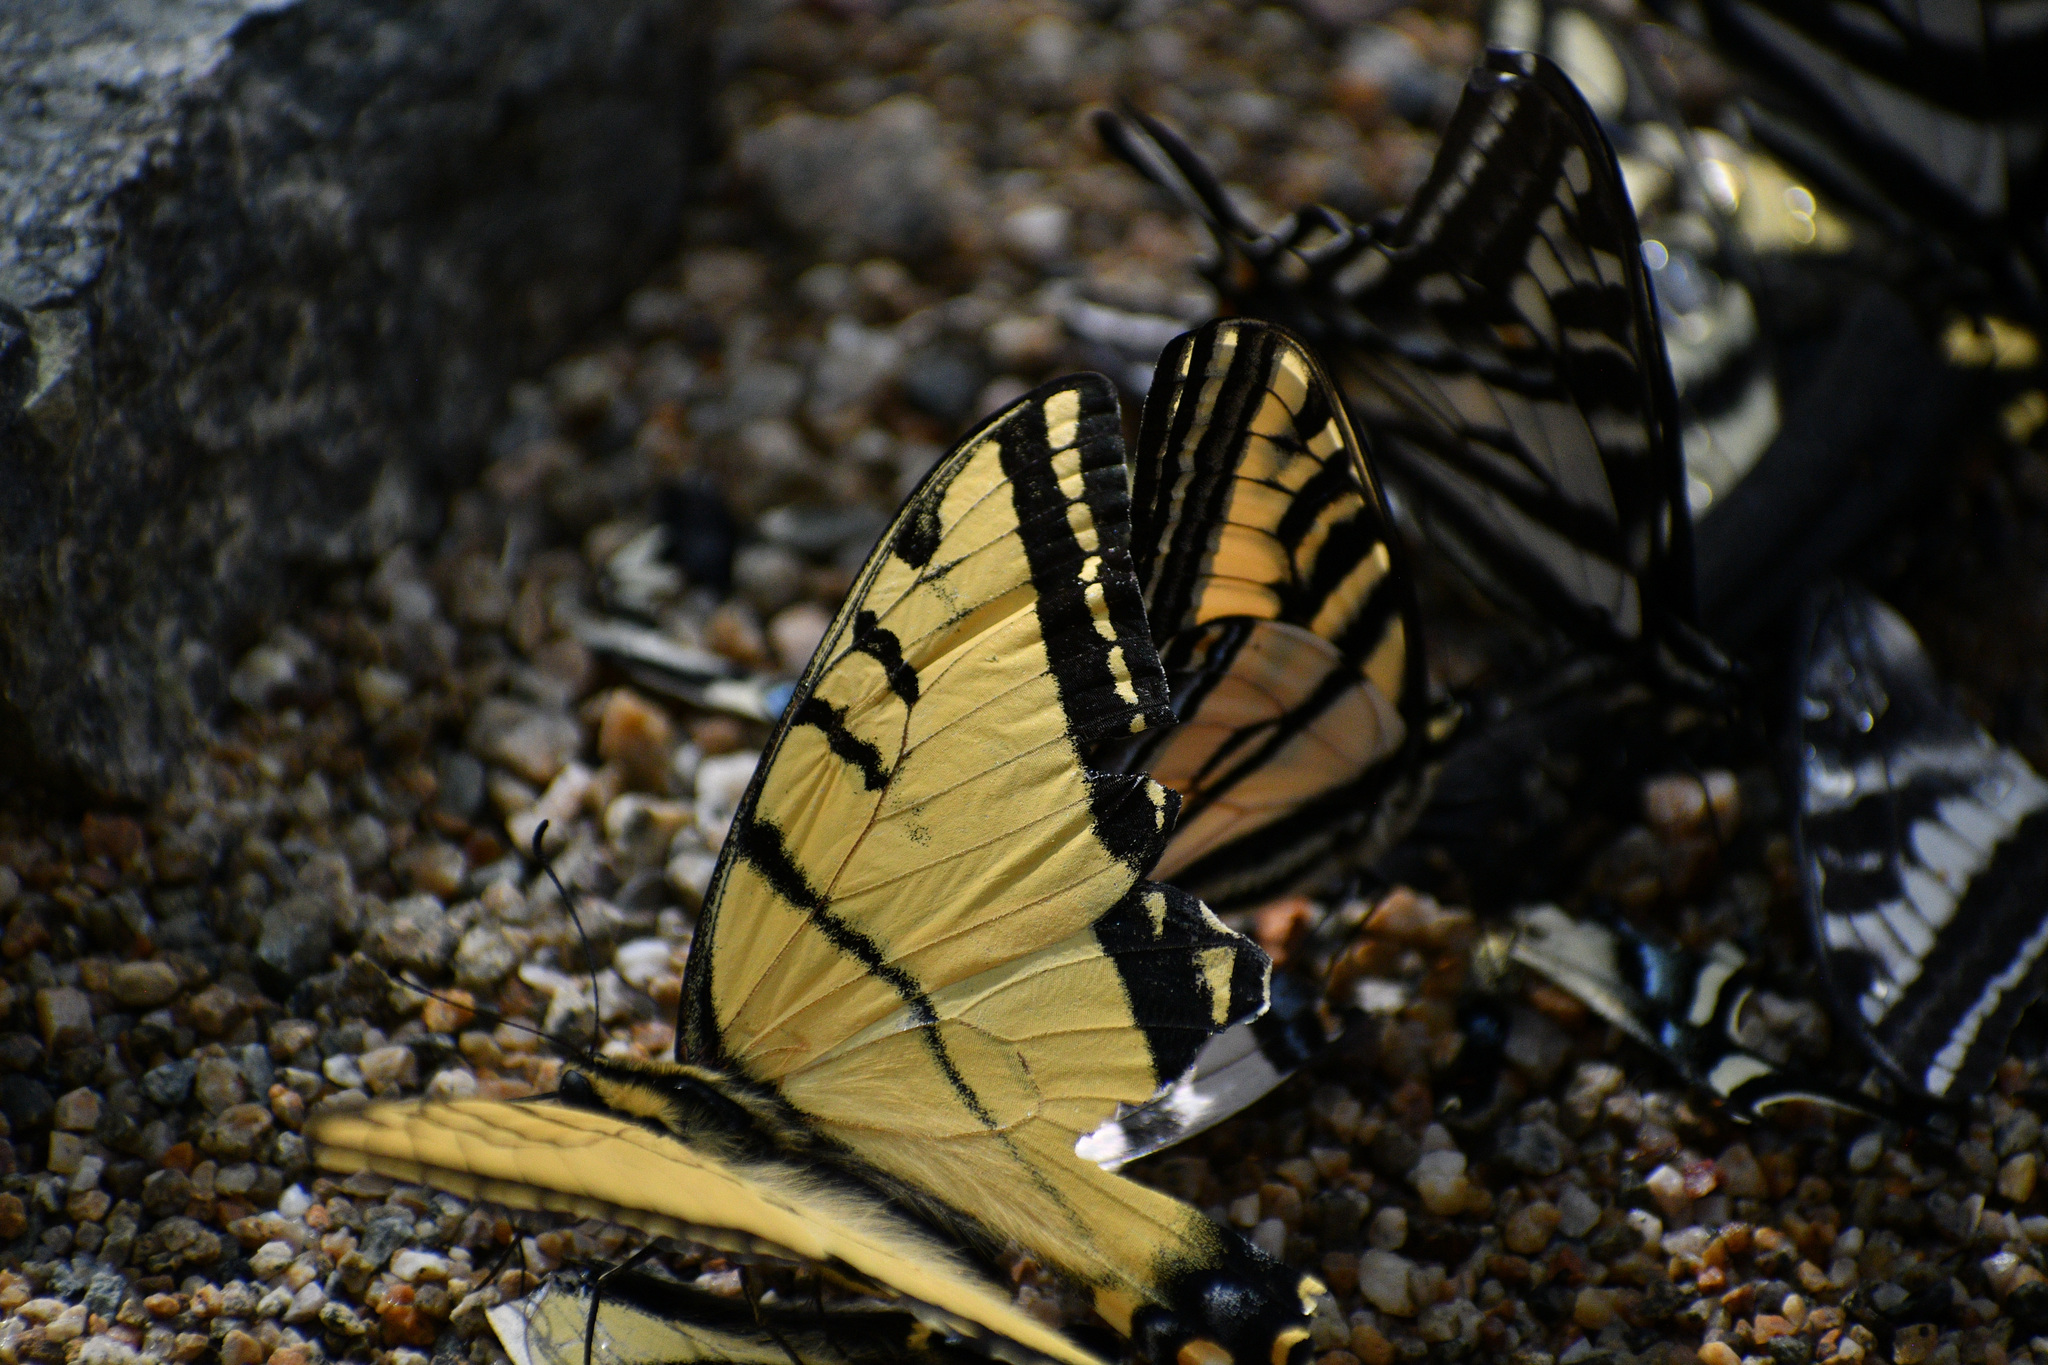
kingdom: Animalia
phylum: Arthropoda
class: Insecta
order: Lepidoptera
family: Papilionidae
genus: Papilio
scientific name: Papilio multicaudata
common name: Two-tailed tiger swallowtail
